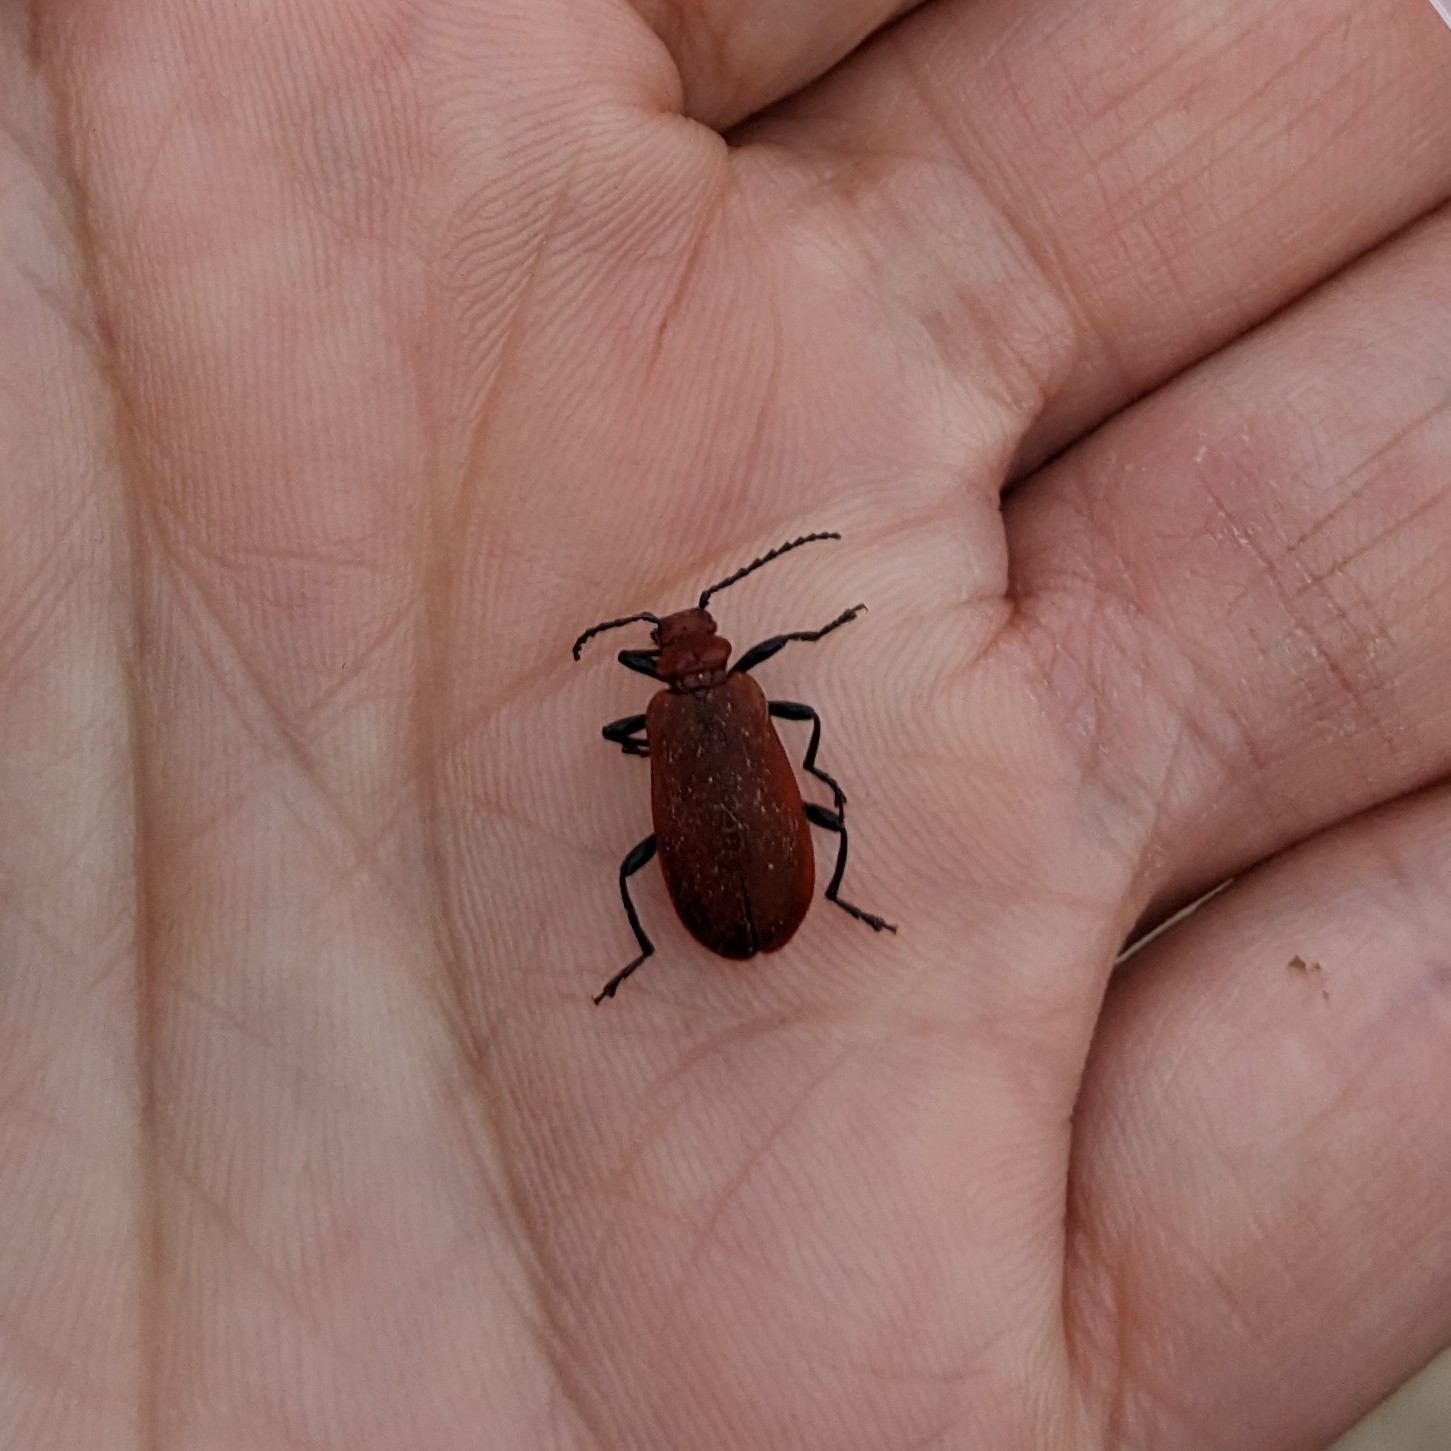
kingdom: Animalia
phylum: Arthropoda
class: Insecta
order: Coleoptera
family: Pyrochroidae
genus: Pyrochroa
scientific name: Pyrochroa serraticornis
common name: Red-headed cardinal beetle
